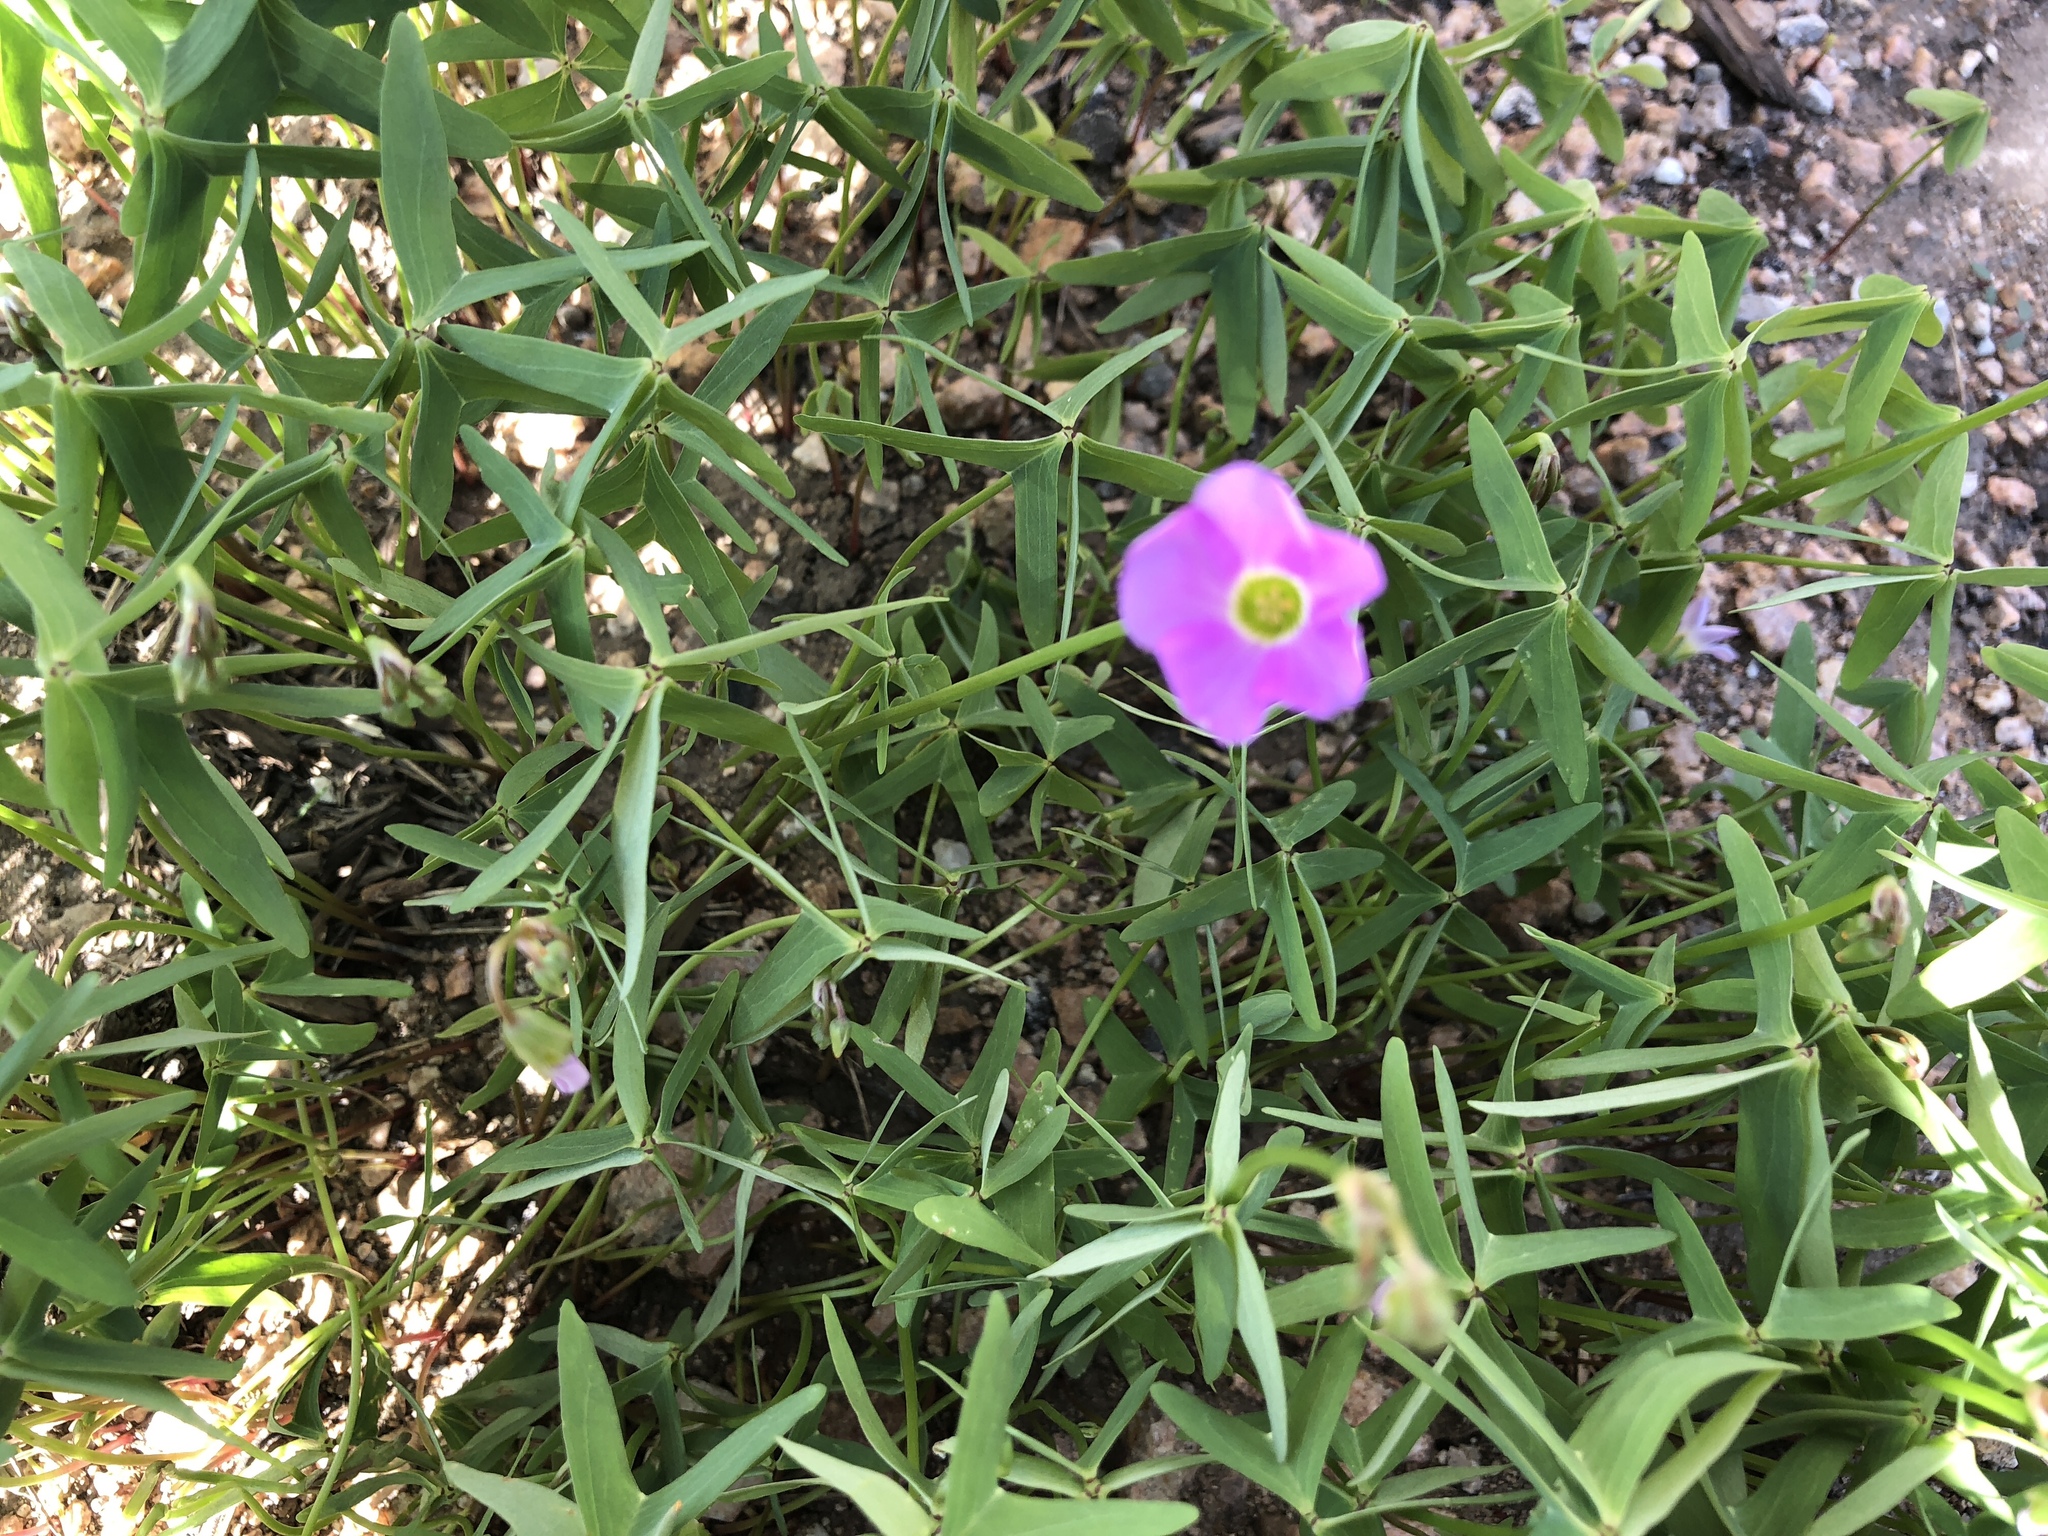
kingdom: Plantae
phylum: Tracheophyta
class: Magnoliopsida
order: Oxalidales
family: Oxalidaceae
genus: Oxalis
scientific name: Oxalis drummondii
